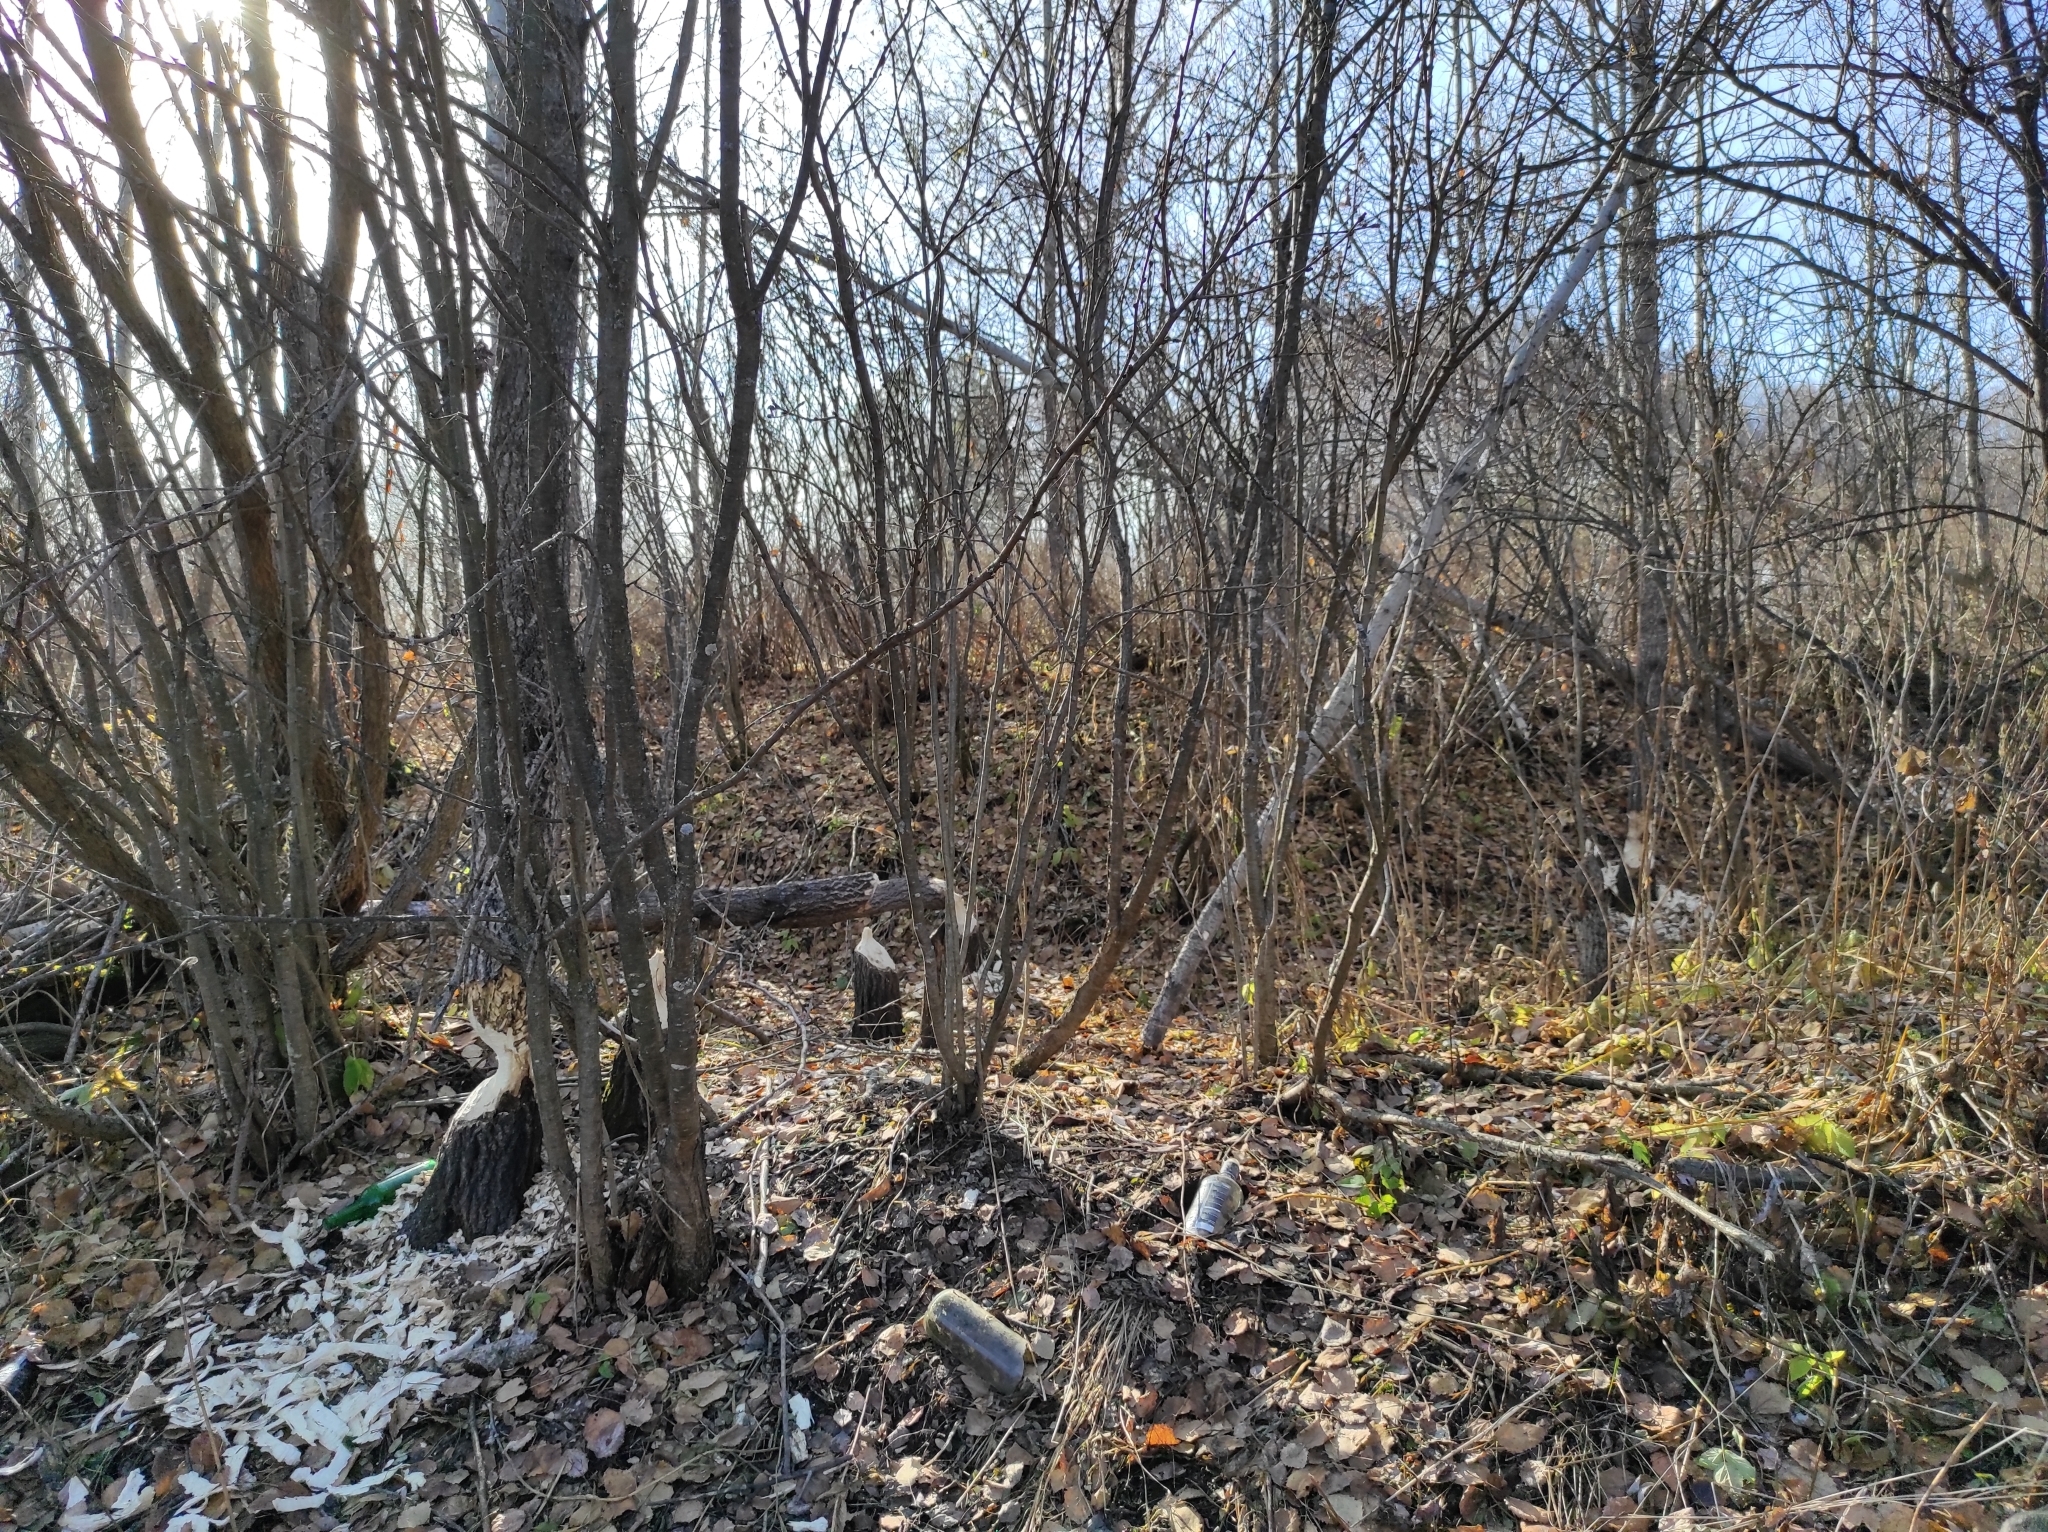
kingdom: Animalia
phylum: Chordata
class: Mammalia
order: Rodentia
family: Castoridae
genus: Castor
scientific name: Castor fiber
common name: Eurasian beaver
